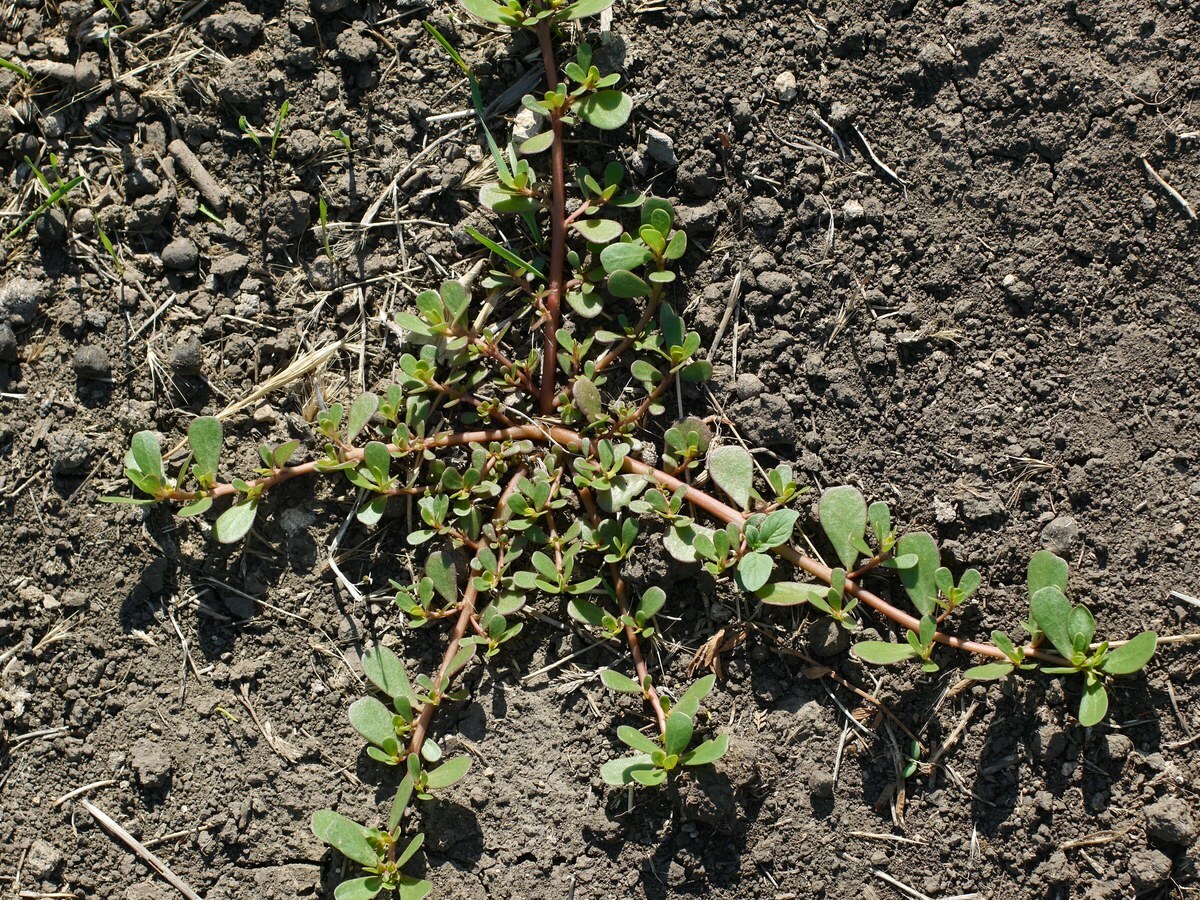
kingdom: Plantae
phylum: Tracheophyta
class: Magnoliopsida
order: Caryophyllales
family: Portulacaceae
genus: Portulaca
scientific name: Portulaca oleracea
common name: Common purslane
